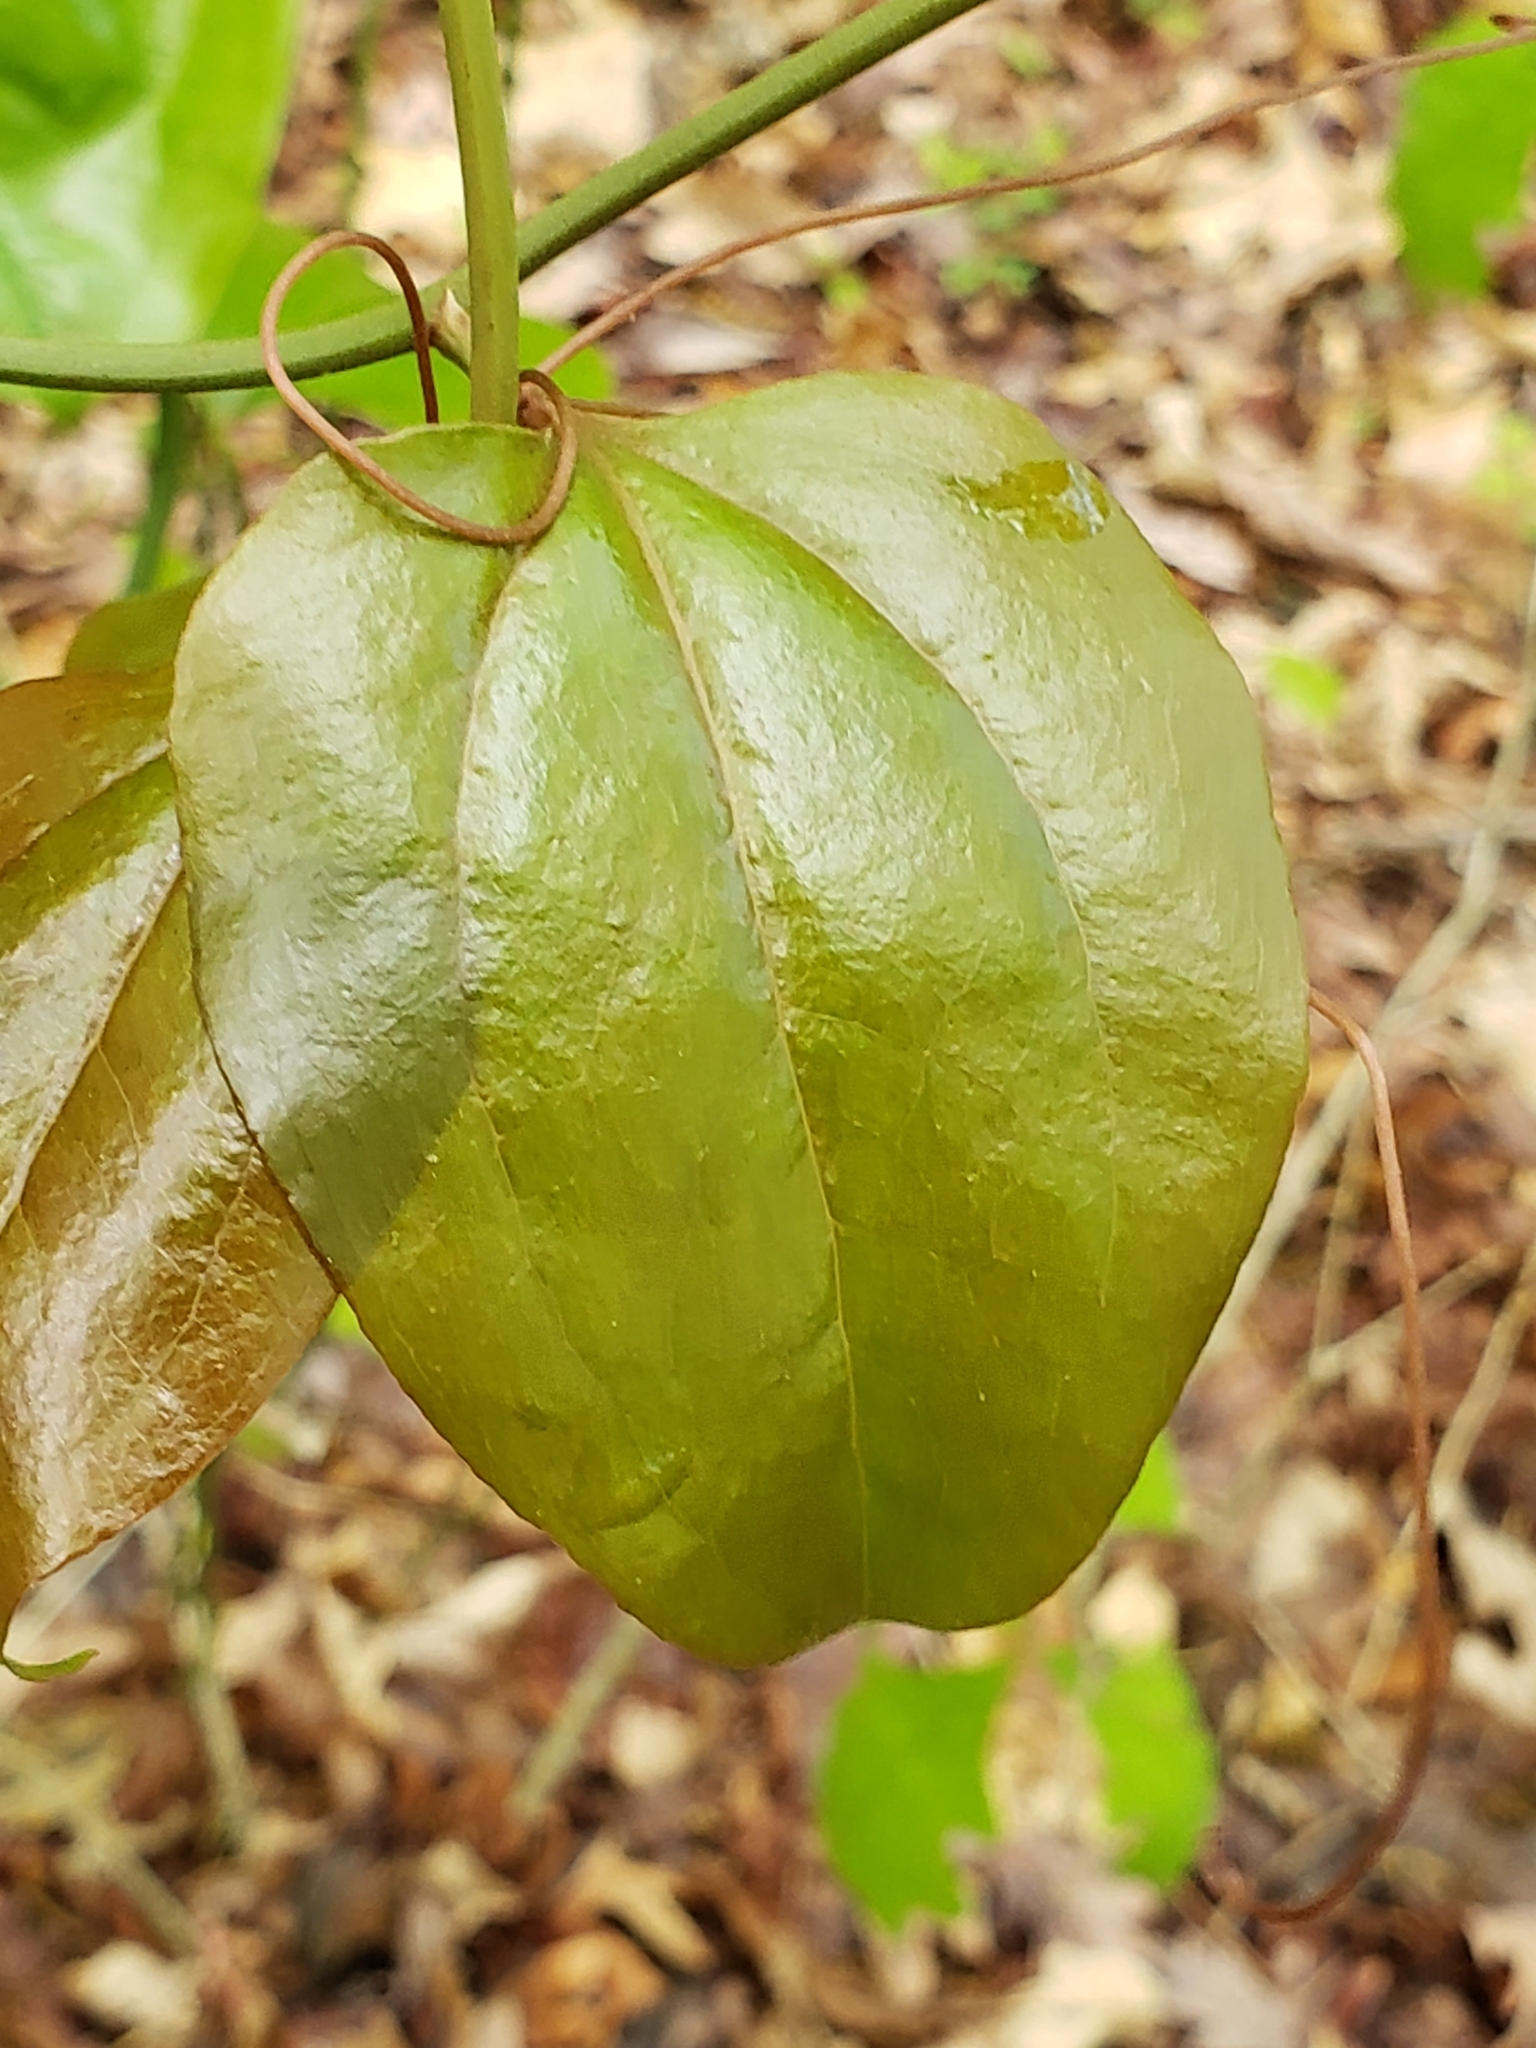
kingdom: Plantae
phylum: Tracheophyta
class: Liliopsida
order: Liliales
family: Smilacaceae
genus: Smilax
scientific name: Smilax rotundifolia
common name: Bullbriar
